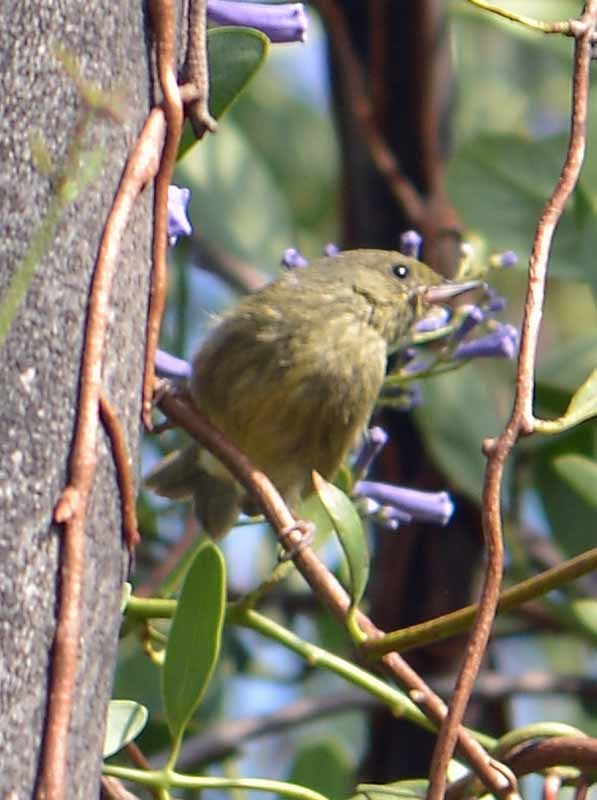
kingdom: Animalia
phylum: Chordata
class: Aves
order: Passeriformes
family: Thraupidae
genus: Diglossa
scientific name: Diglossa baritula
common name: Cinnamon-bellied flowerpiercer
